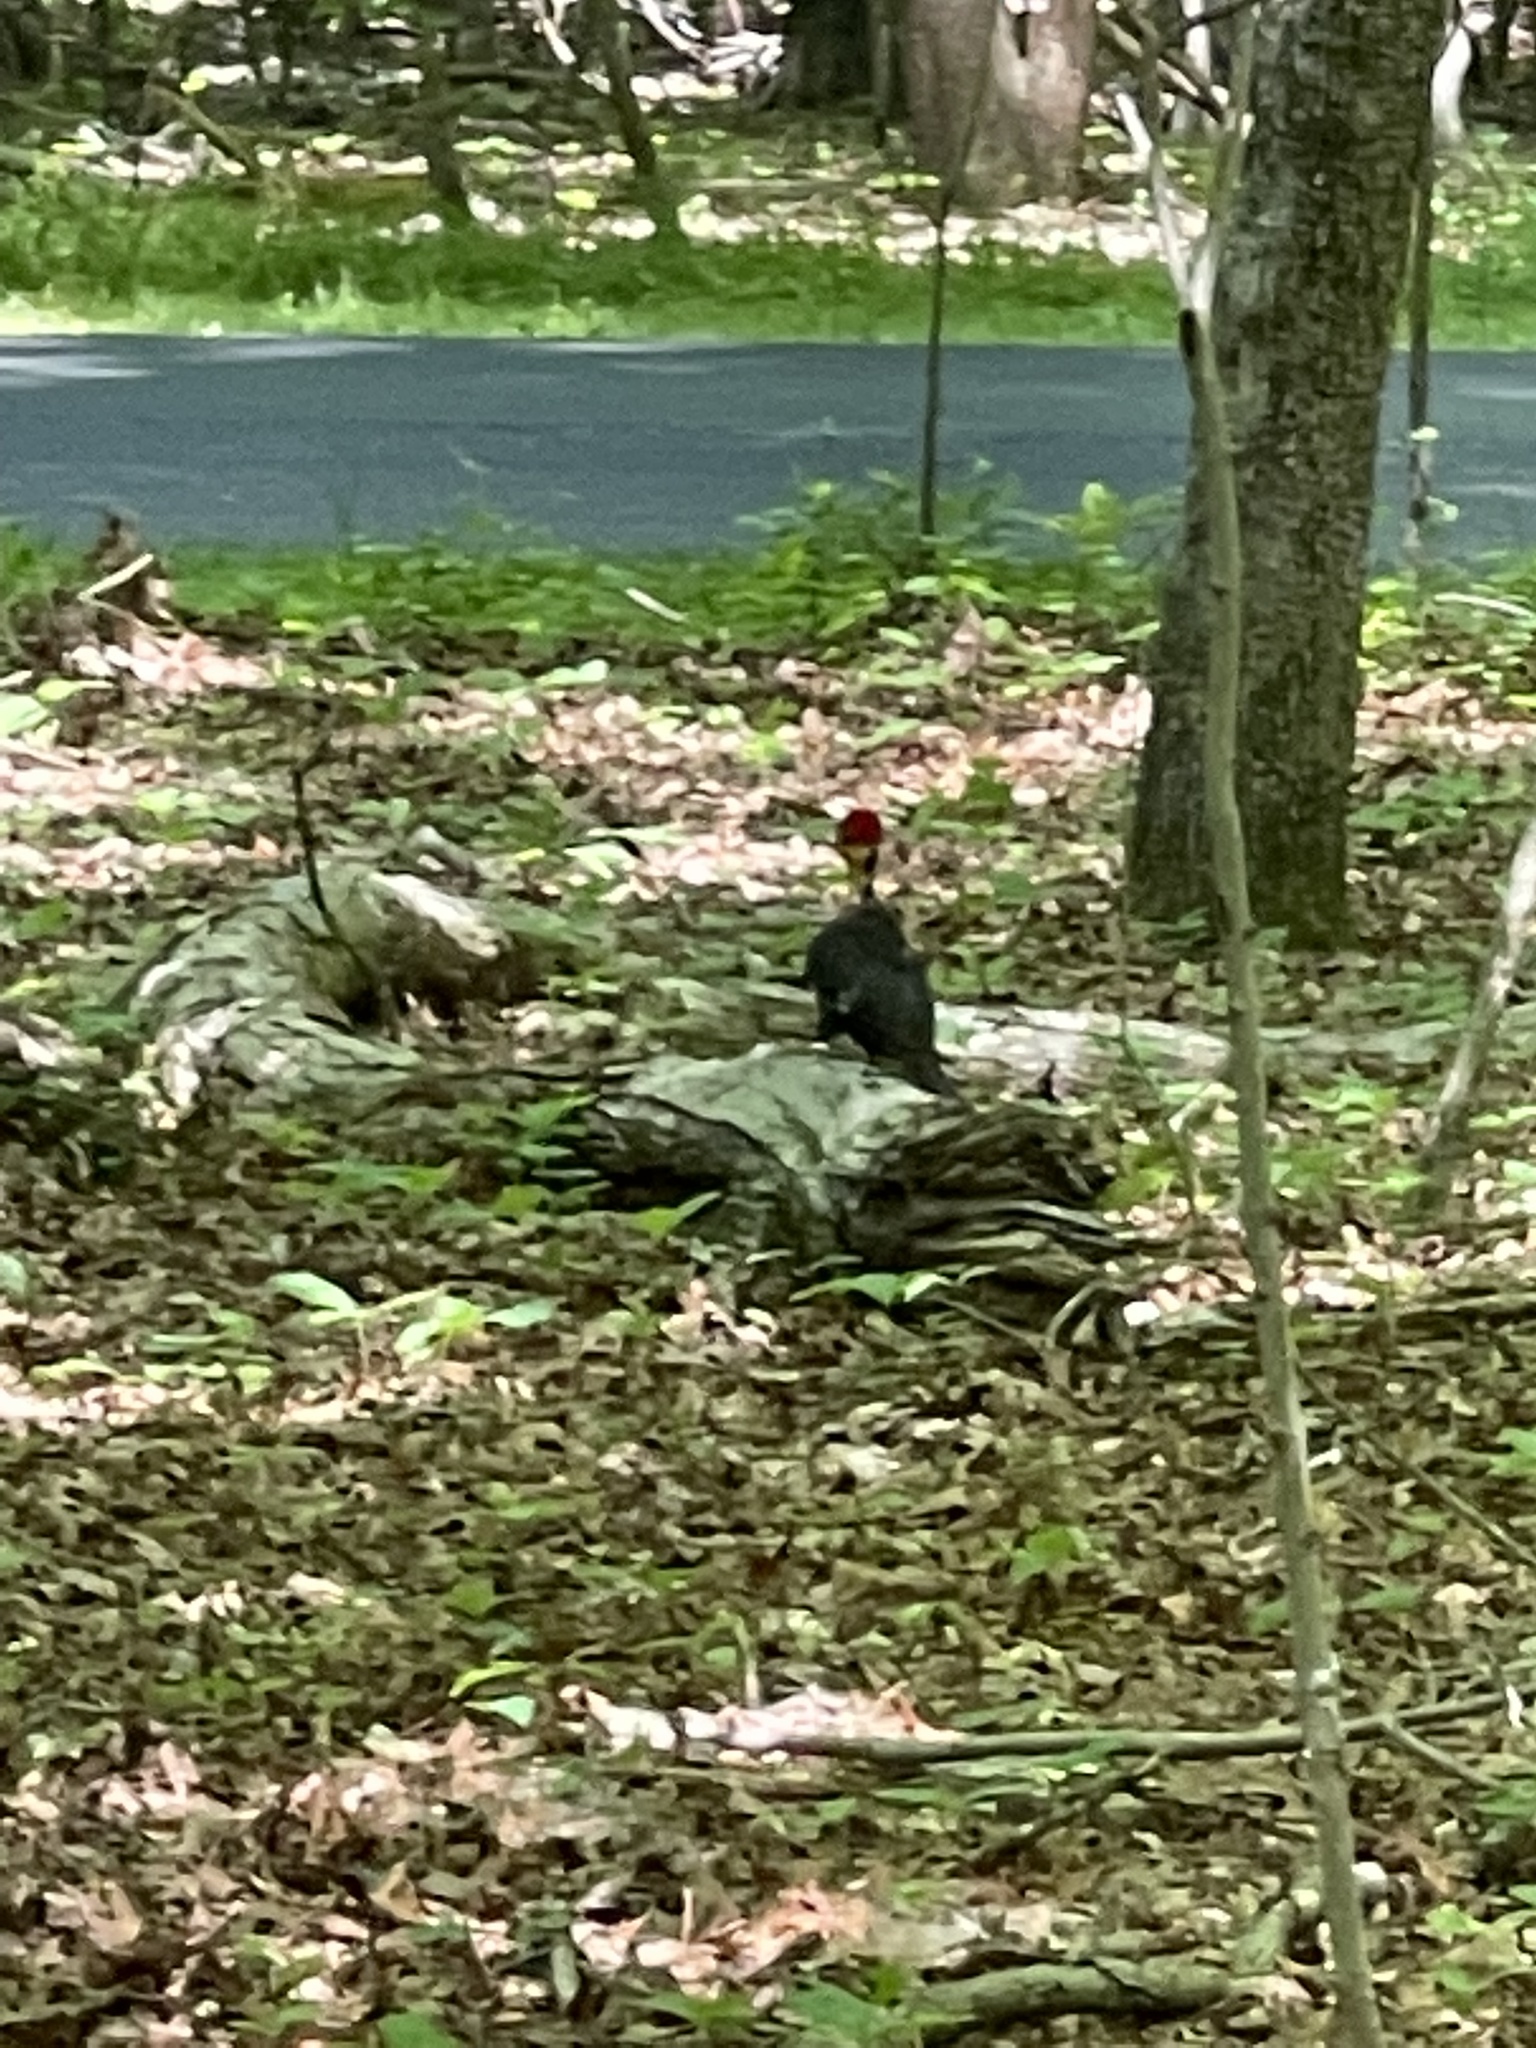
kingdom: Animalia
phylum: Chordata
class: Aves
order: Piciformes
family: Picidae
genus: Dryocopus
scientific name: Dryocopus pileatus
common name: Pileated woodpecker
